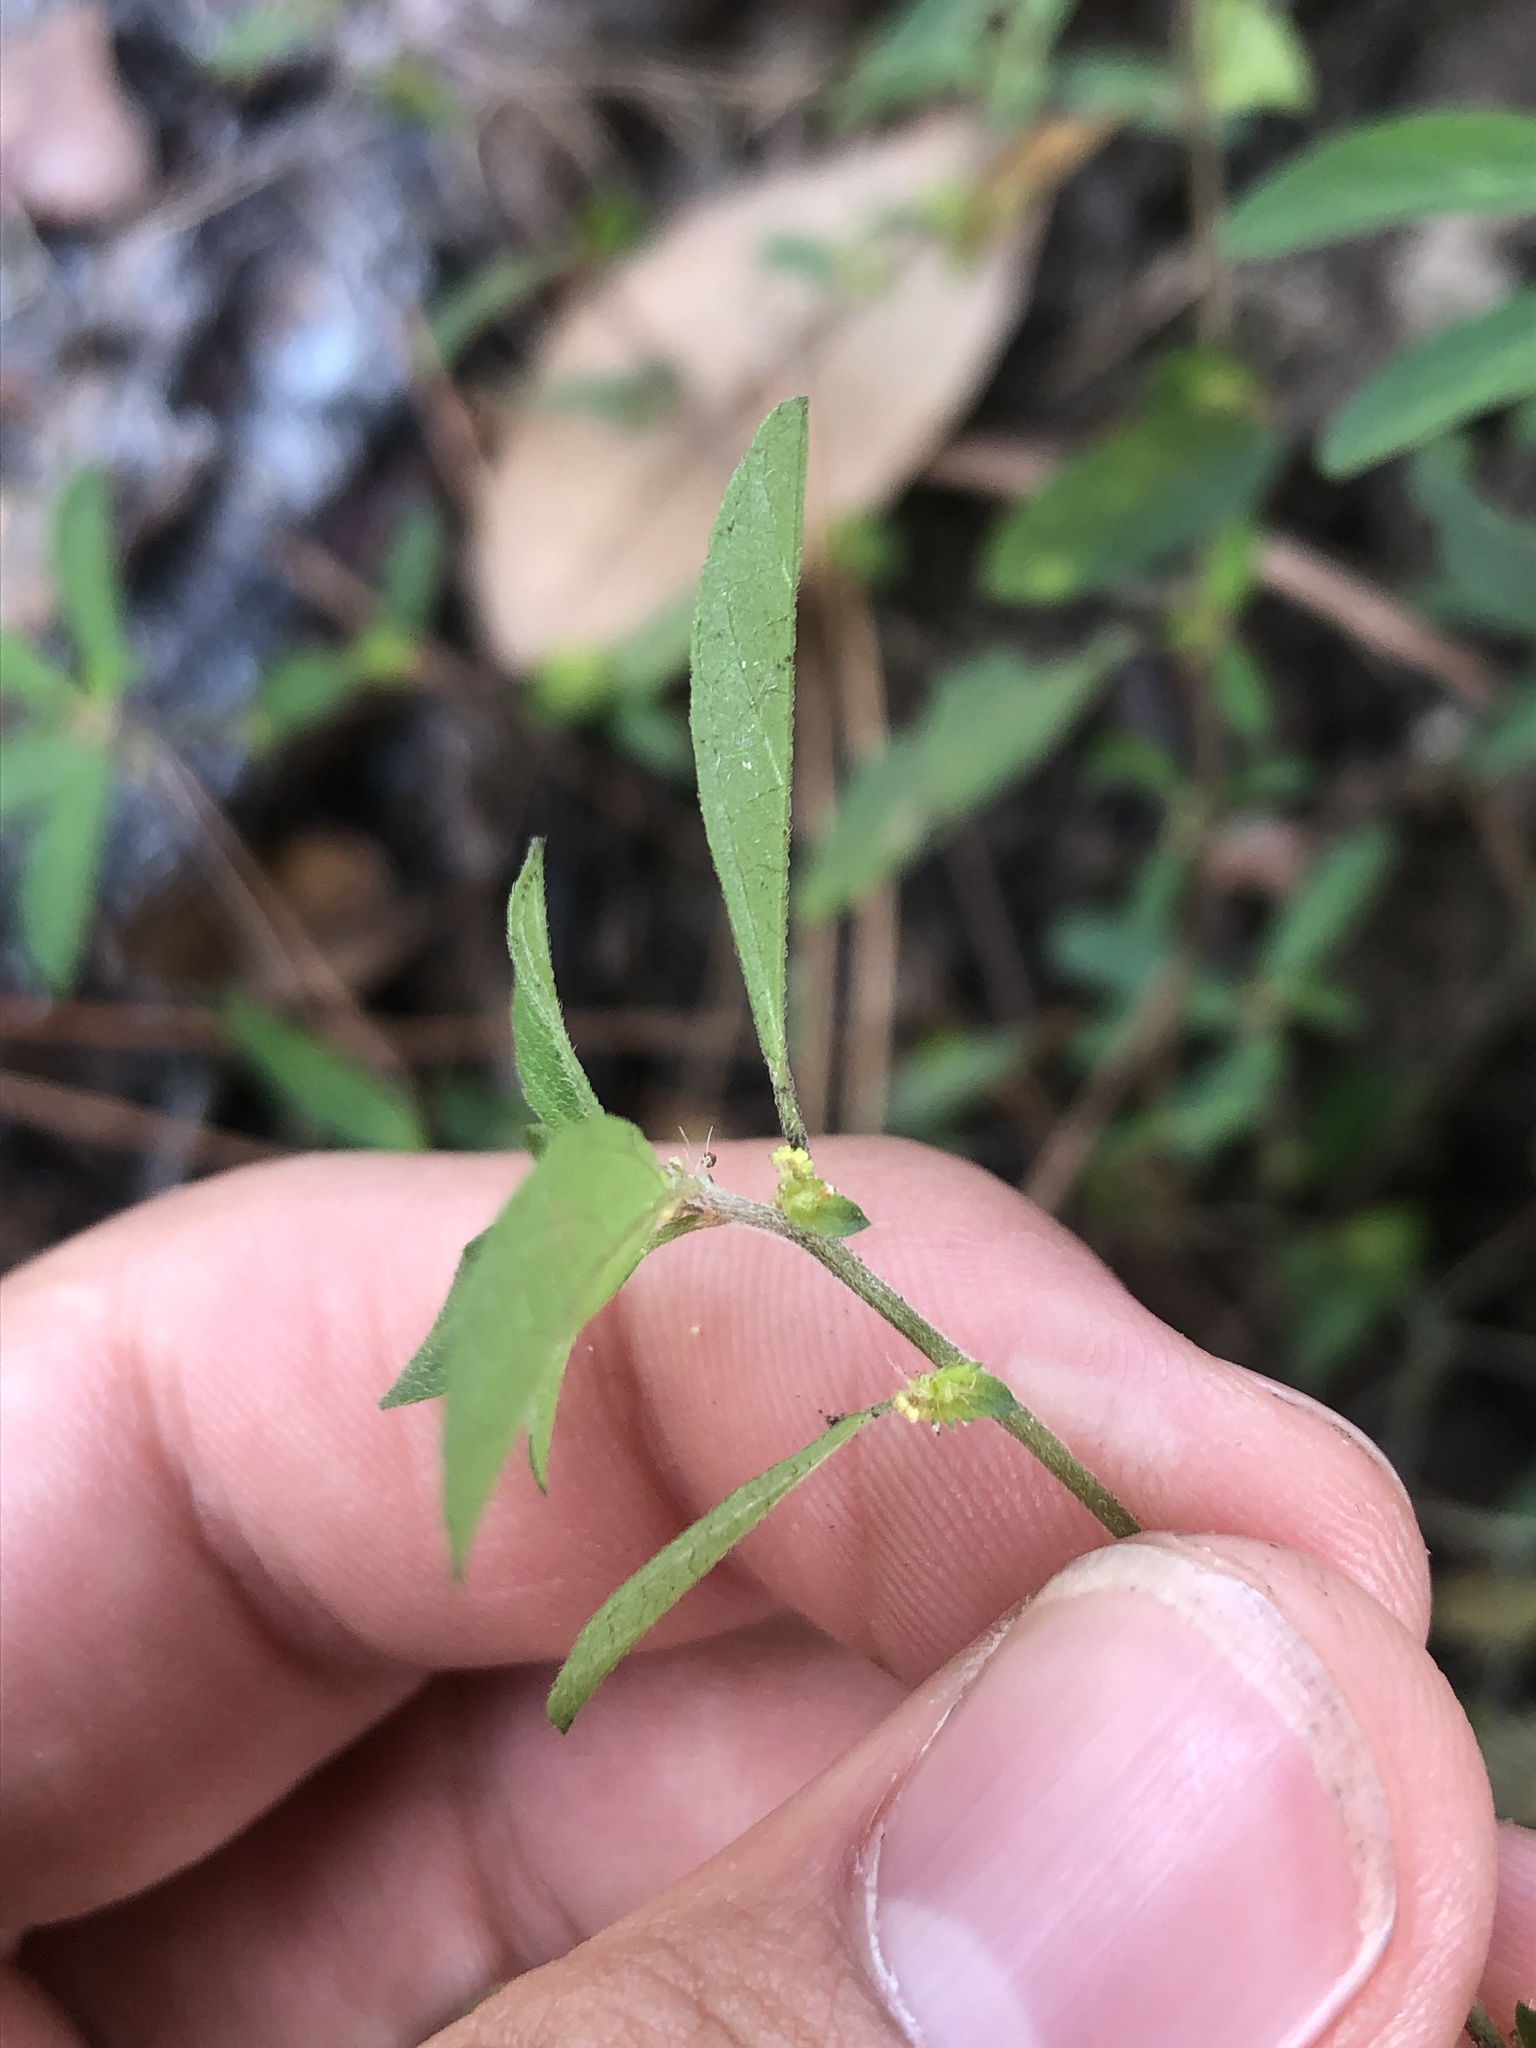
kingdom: Plantae
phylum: Tracheophyta
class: Magnoliopsida
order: Malpighiales
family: Euphorbiaceae
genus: Acalypha
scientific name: Acalypha gracilens
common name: Slender three-seeded mercury
